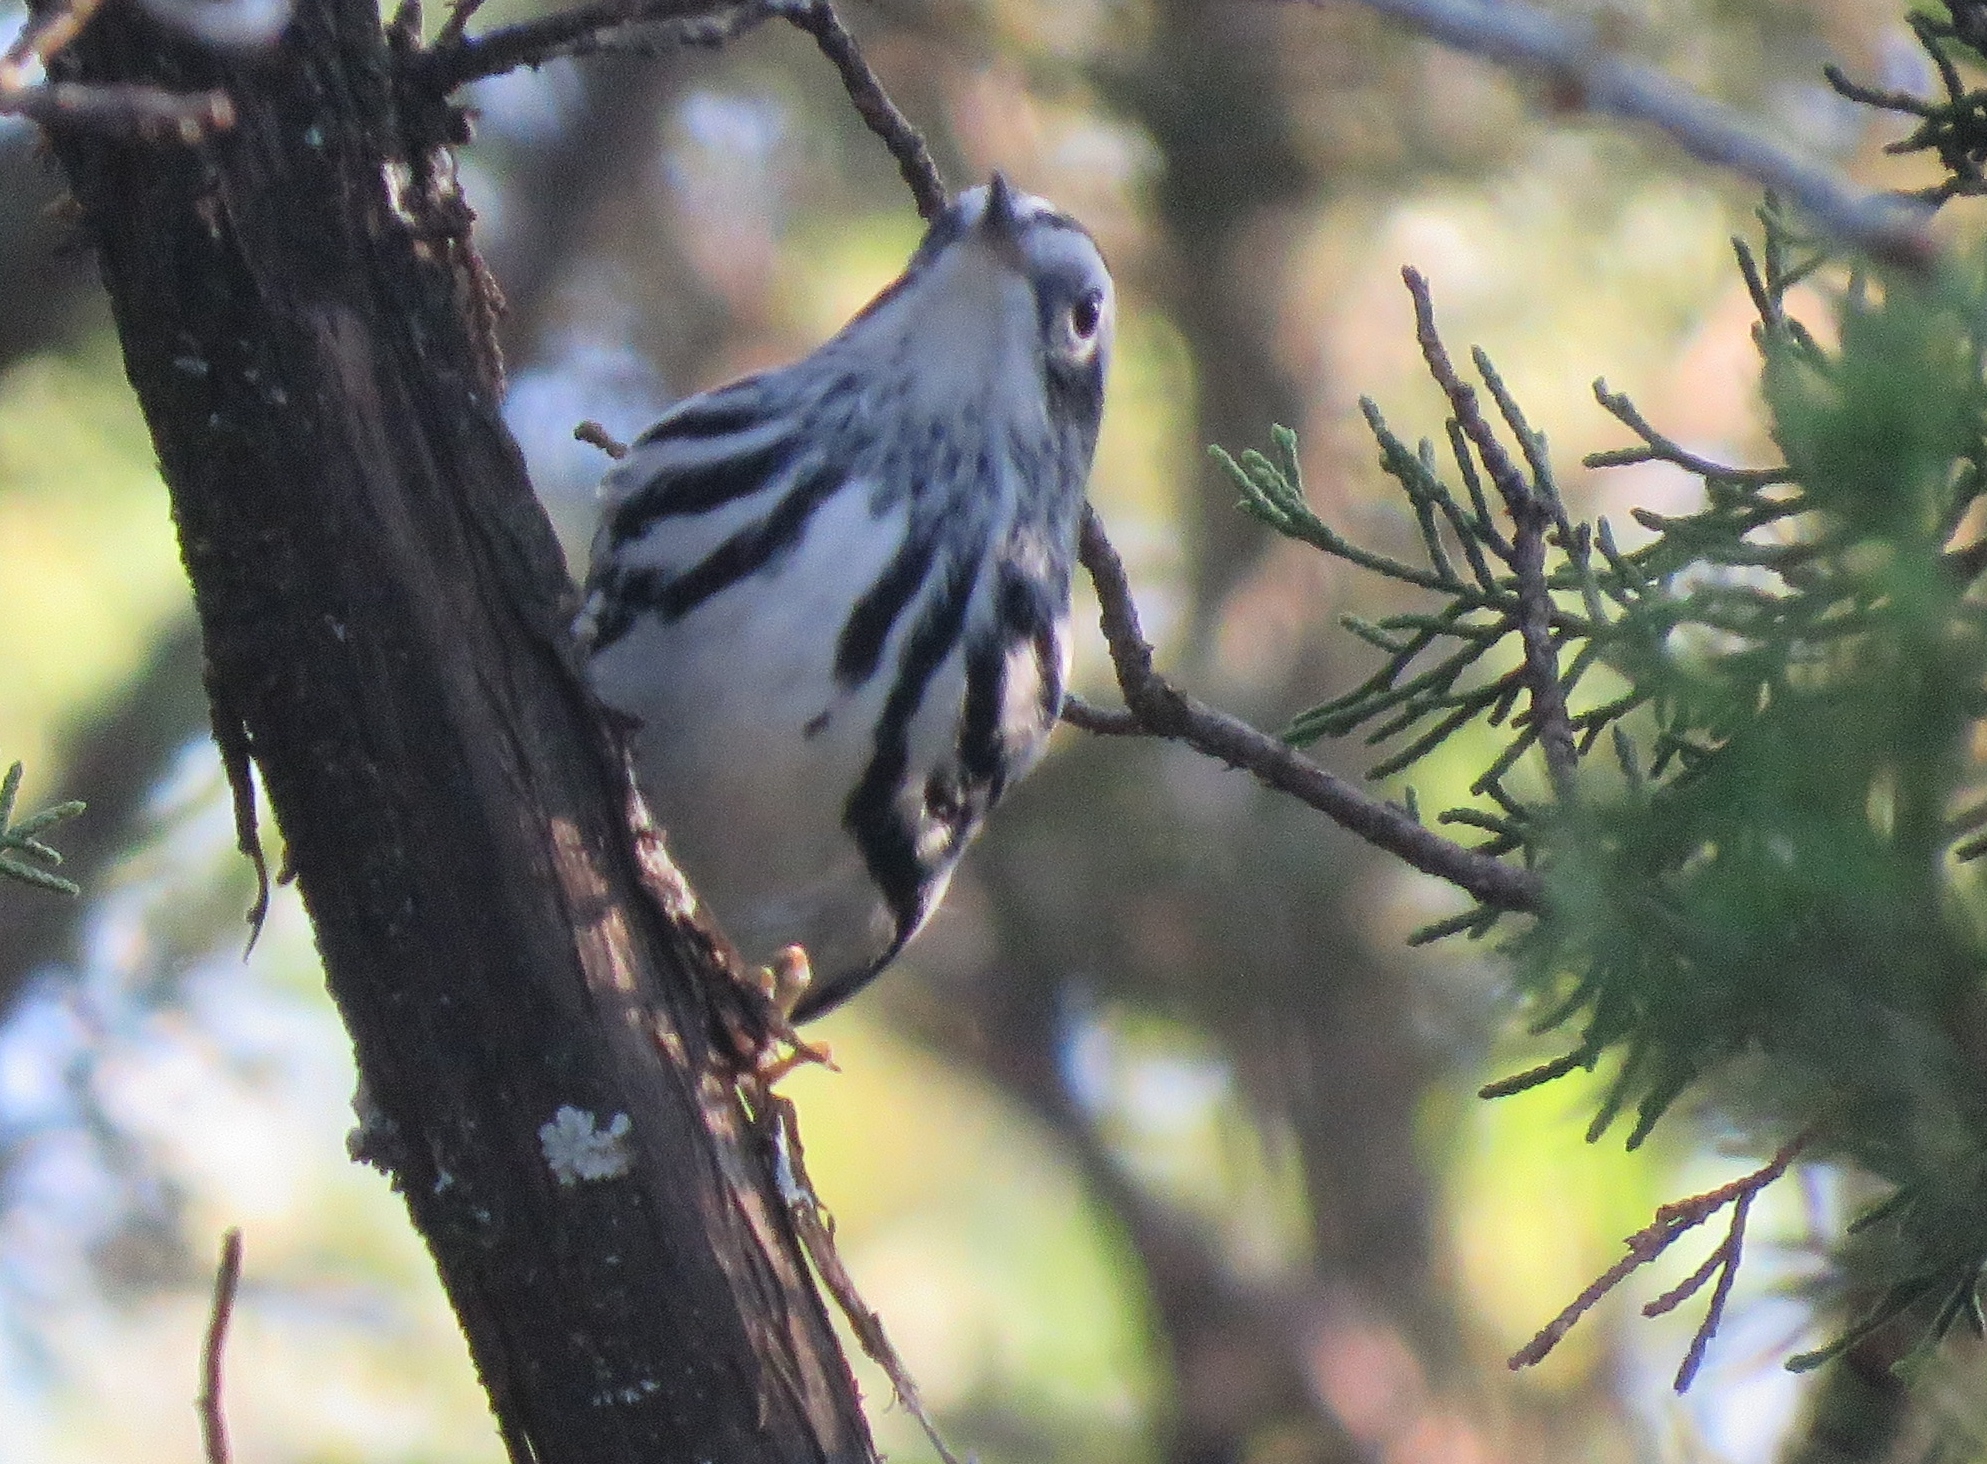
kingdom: Animalia
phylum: Chordata
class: Aves
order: Passeriformes
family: Parulidae
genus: Mniotilta
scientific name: Mniotilta varia
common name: Black-and-white warbler
